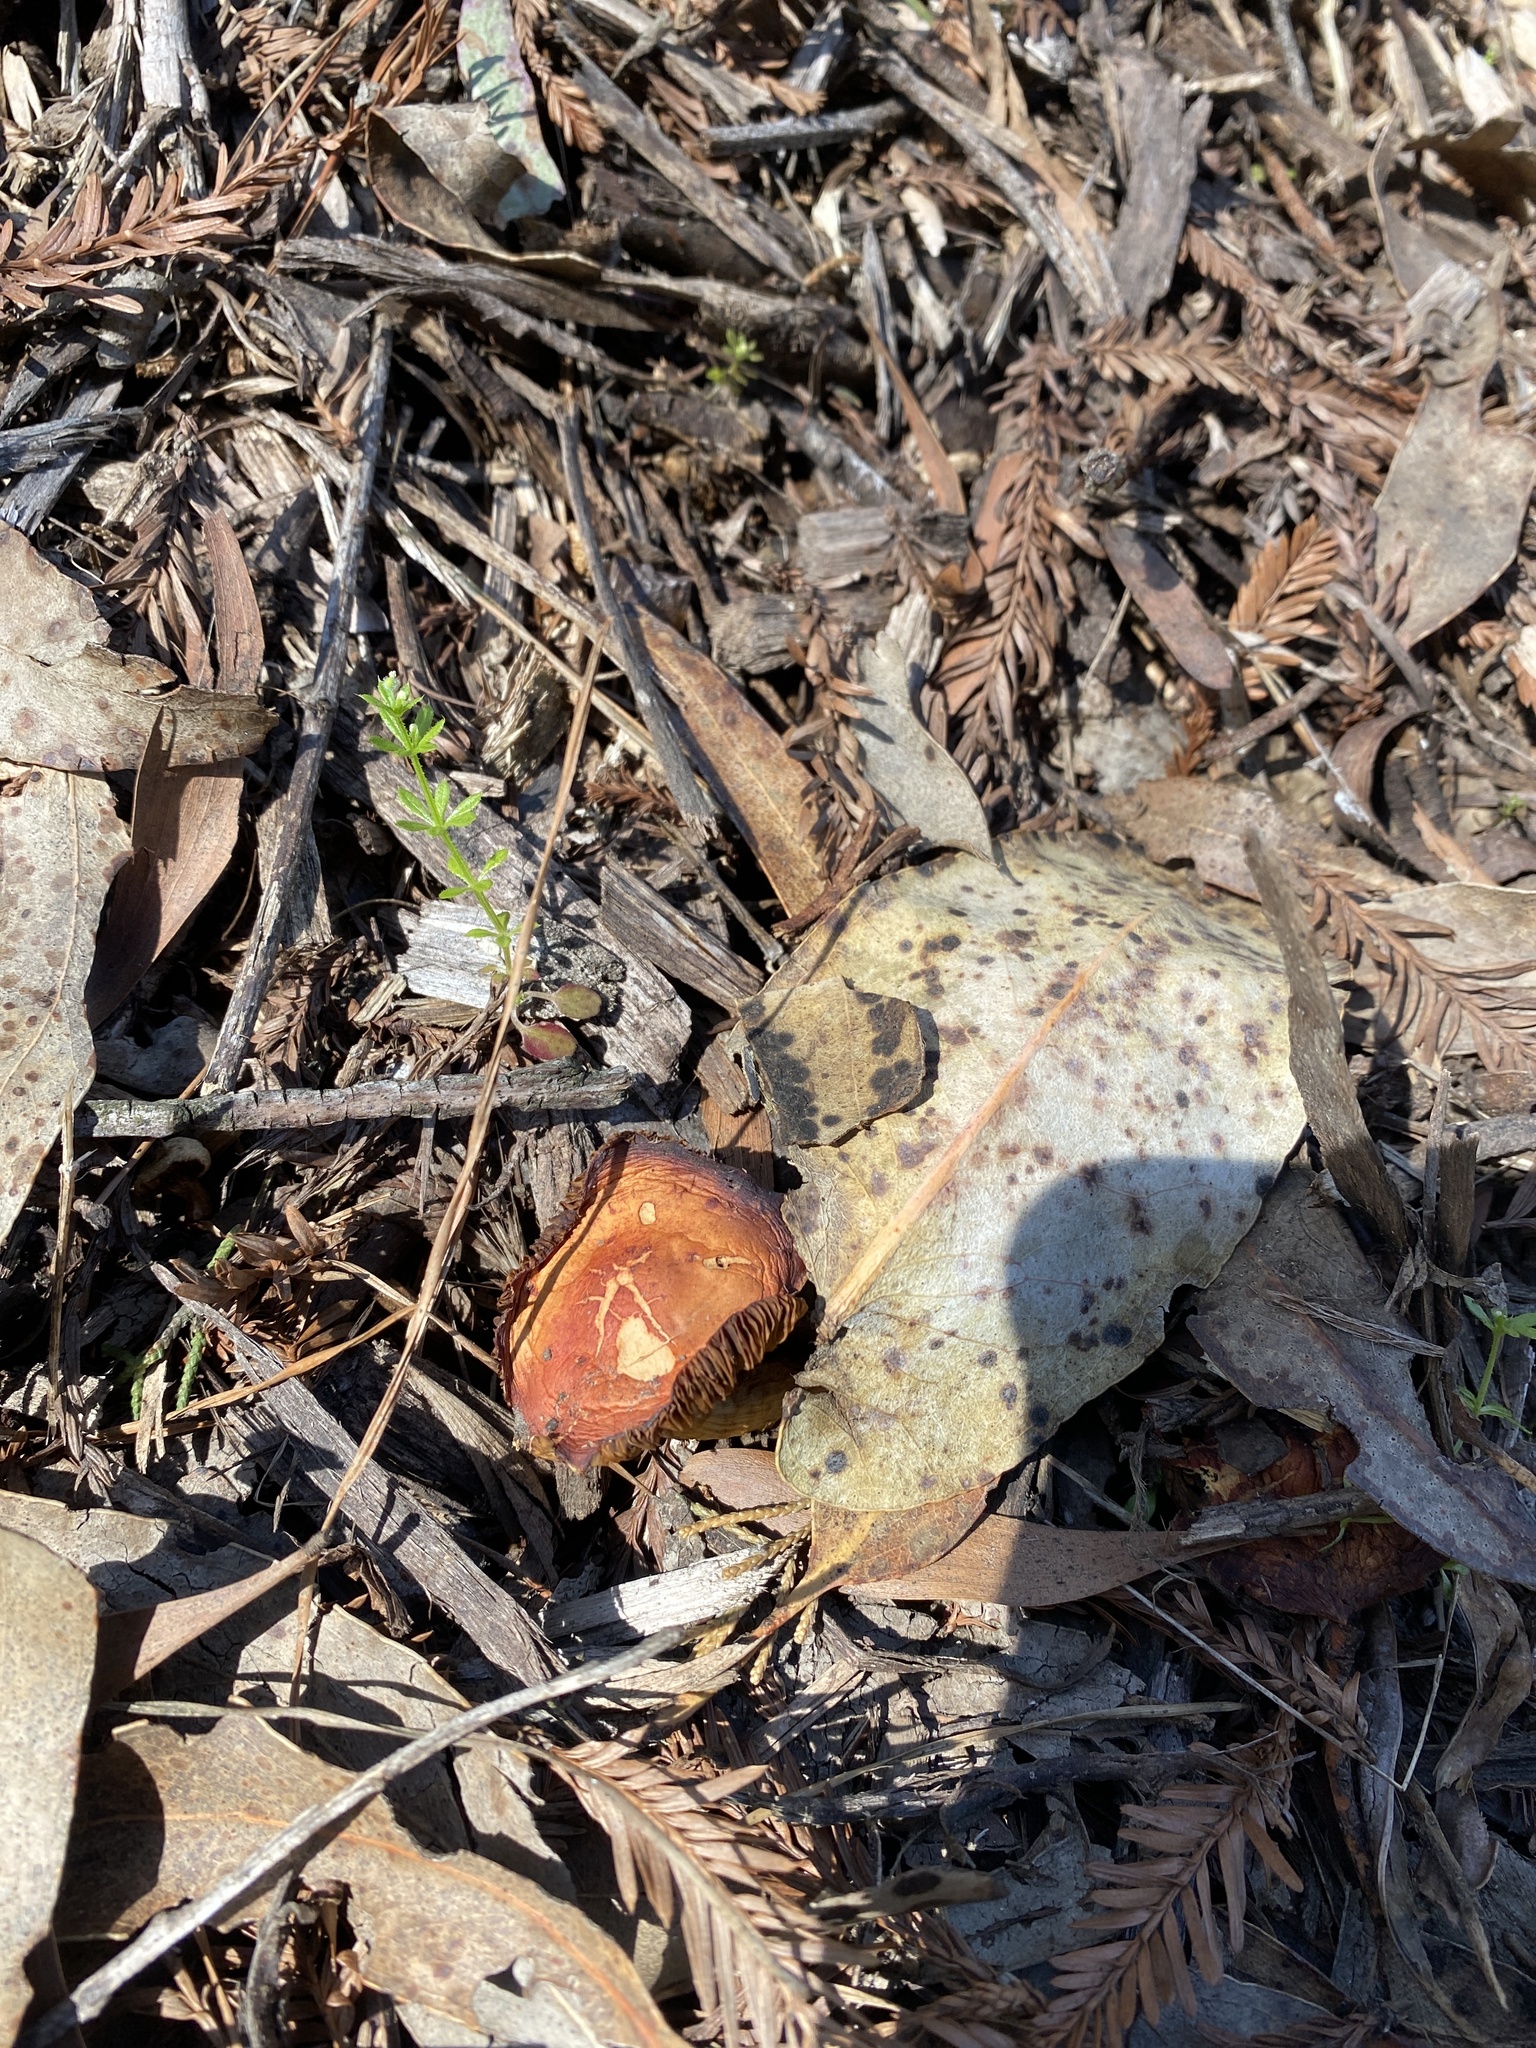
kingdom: Fungi
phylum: Basidiomycota
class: Agaricomycetes
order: Agaricales
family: Strophariaceae
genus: Leratiomyces
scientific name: Leratiomyces ceres
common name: Redlead roundhead
